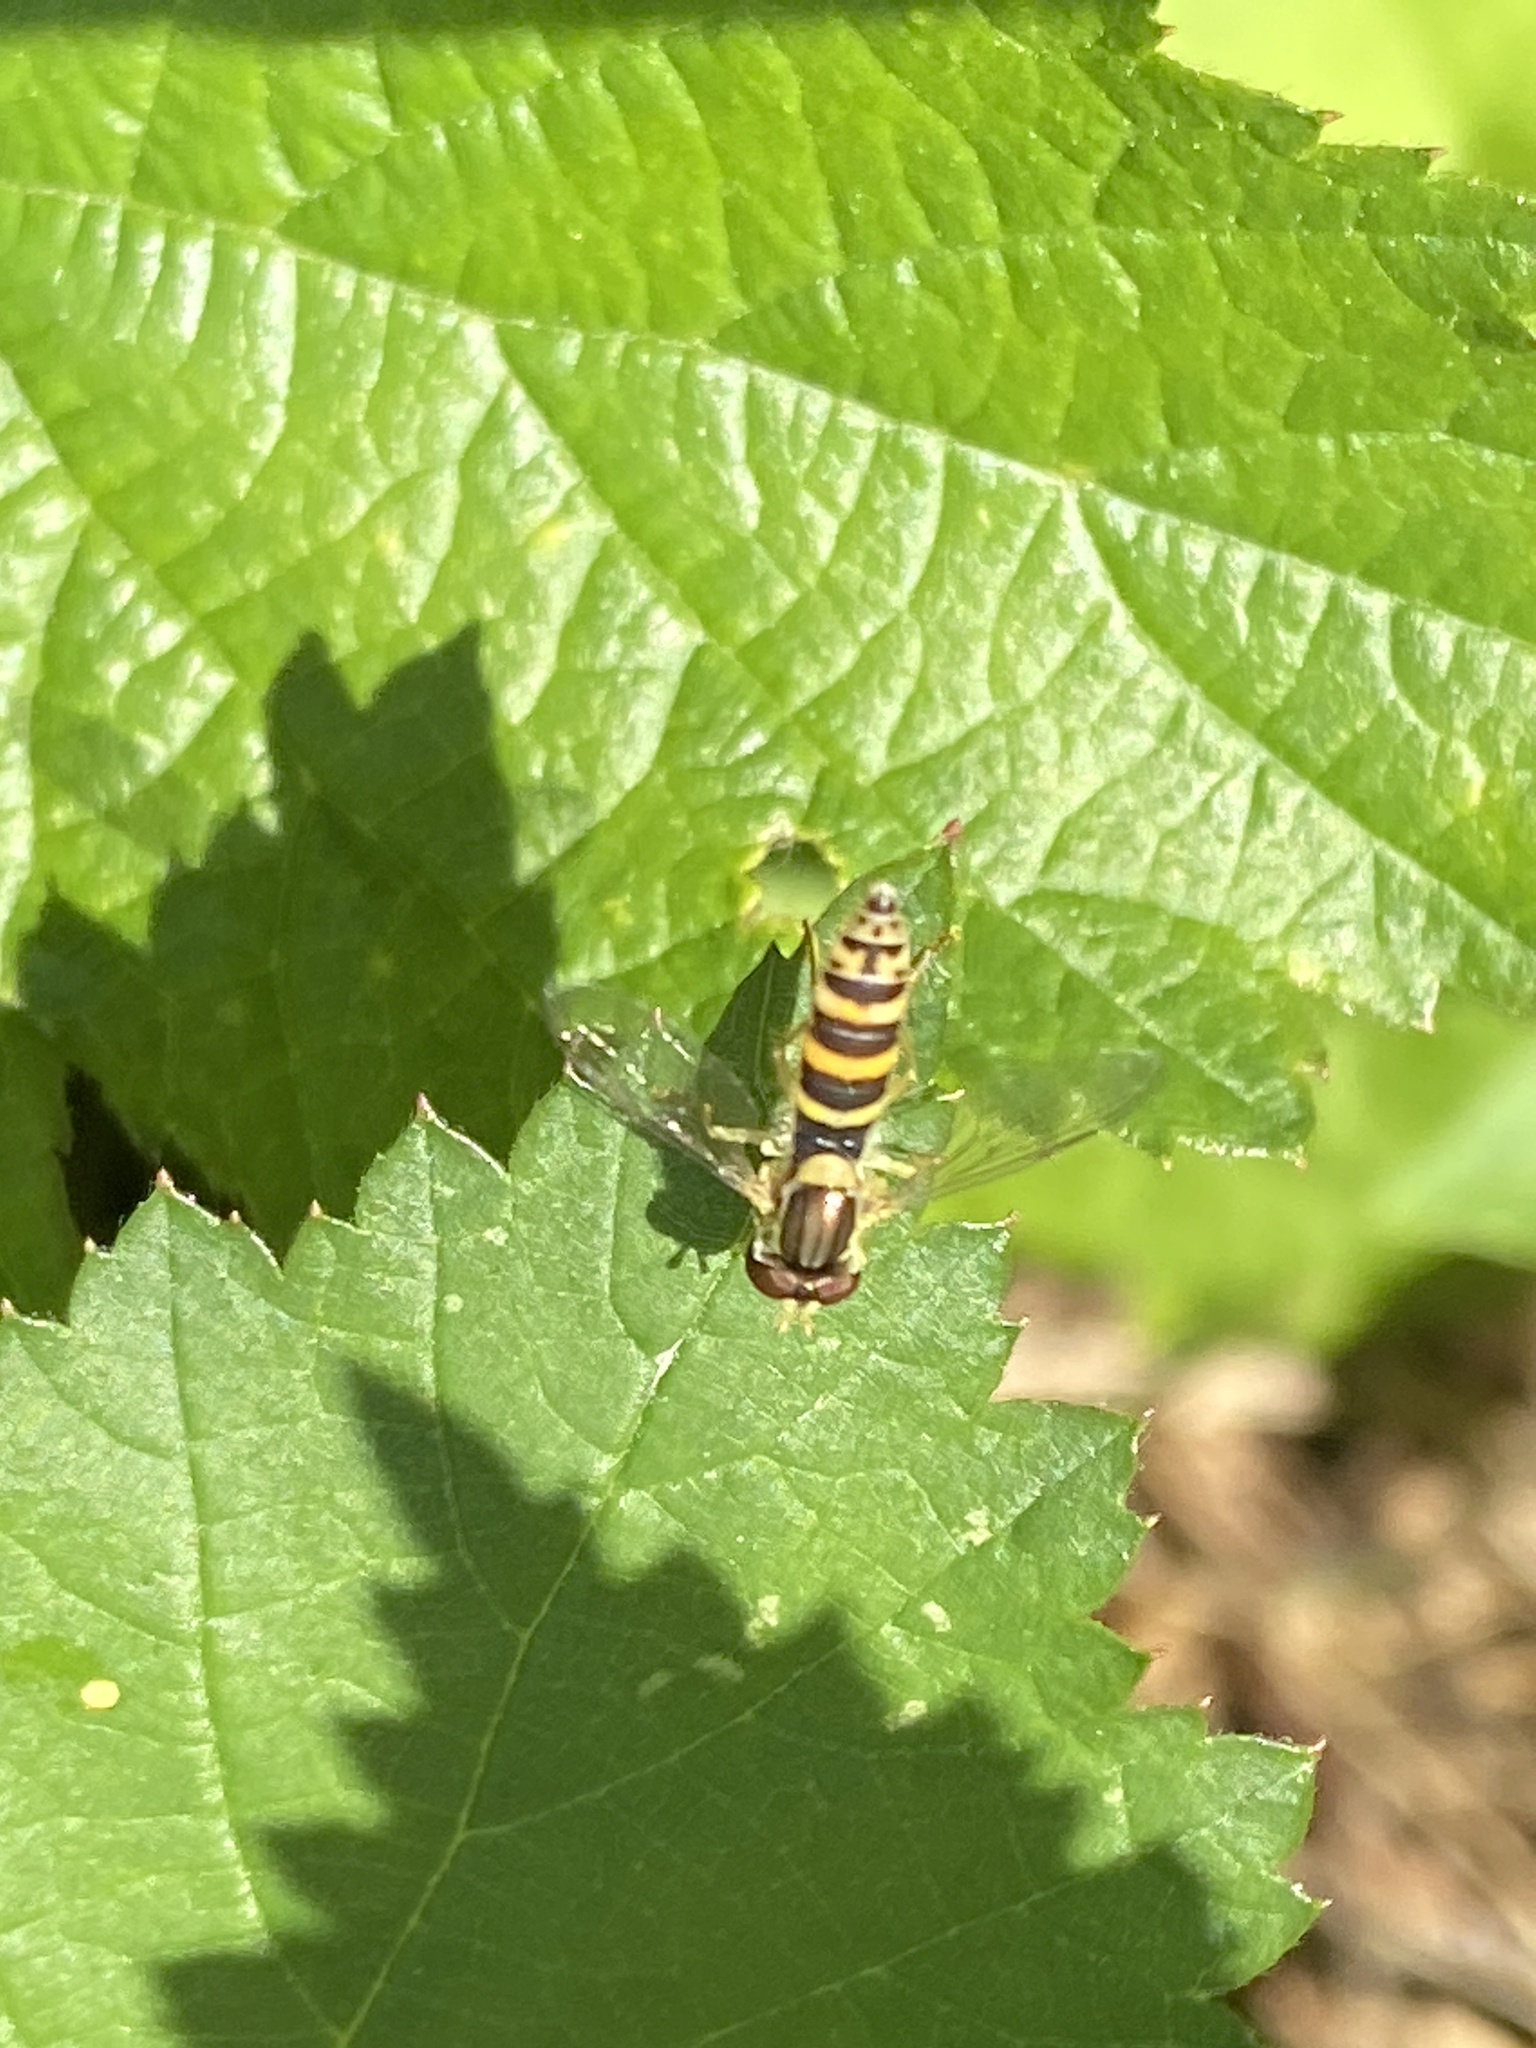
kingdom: Animalia
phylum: Arthropoda
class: Insecta
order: Diptera
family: Syrphidae
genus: Sphaerophoria
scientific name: Sphaerophoria
